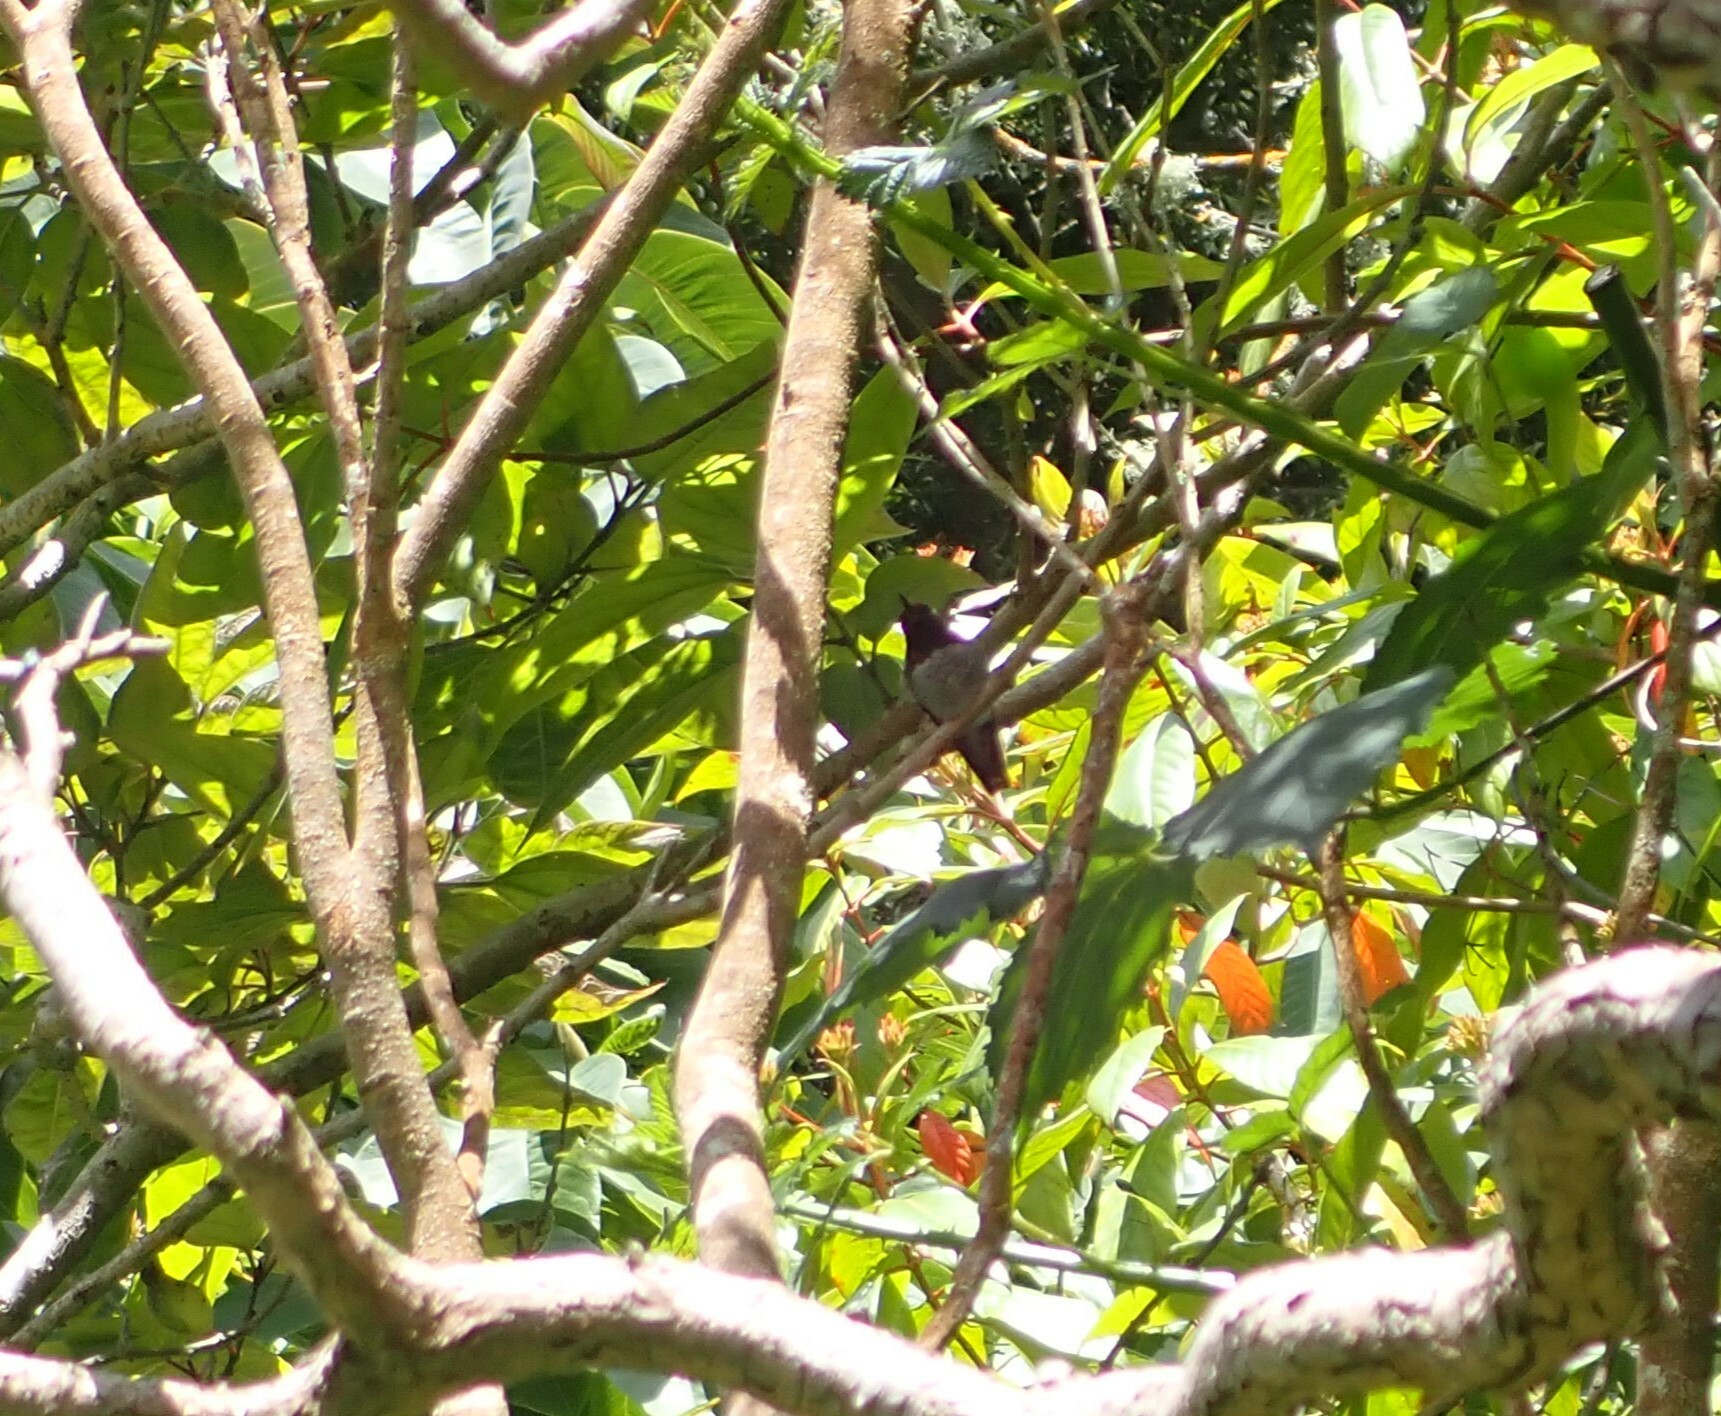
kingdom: Animalia
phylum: Chordata
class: Aves
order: Apodiformes
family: Trochilidae
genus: Calypte
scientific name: Calypte anna
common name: Anna's hummingbird
